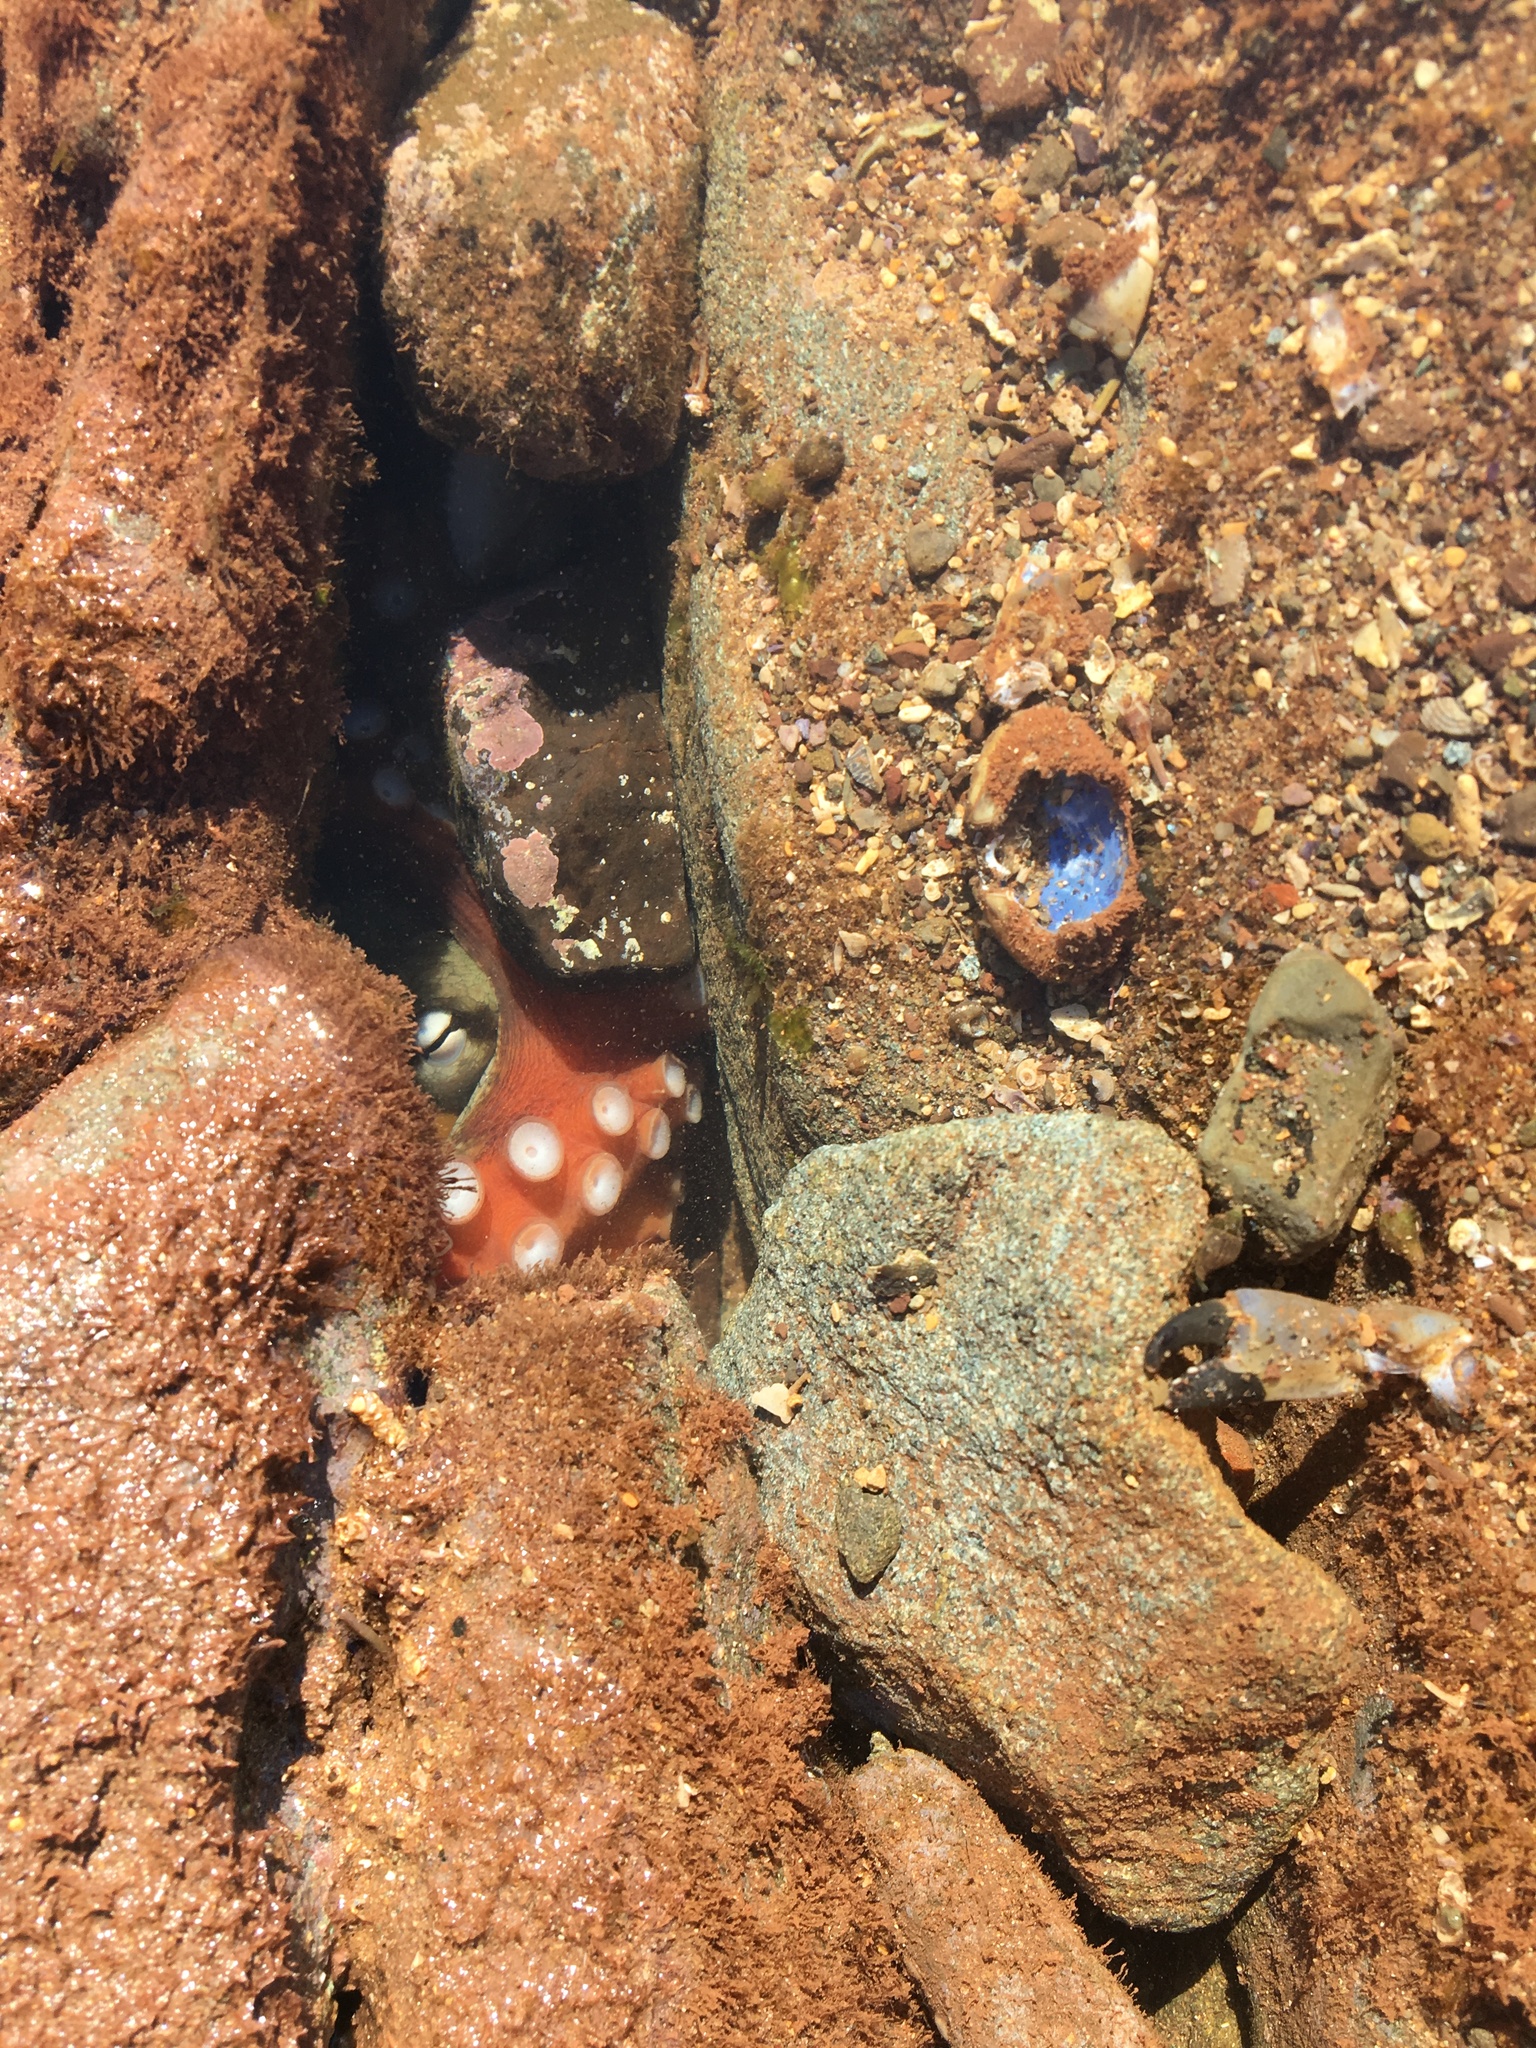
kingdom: Animalia
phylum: Mollusca
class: Cephalopoda
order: Octopoda
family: Octopodidae
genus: Octopus
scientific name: Octopus tetricus
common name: Sydney octopus
